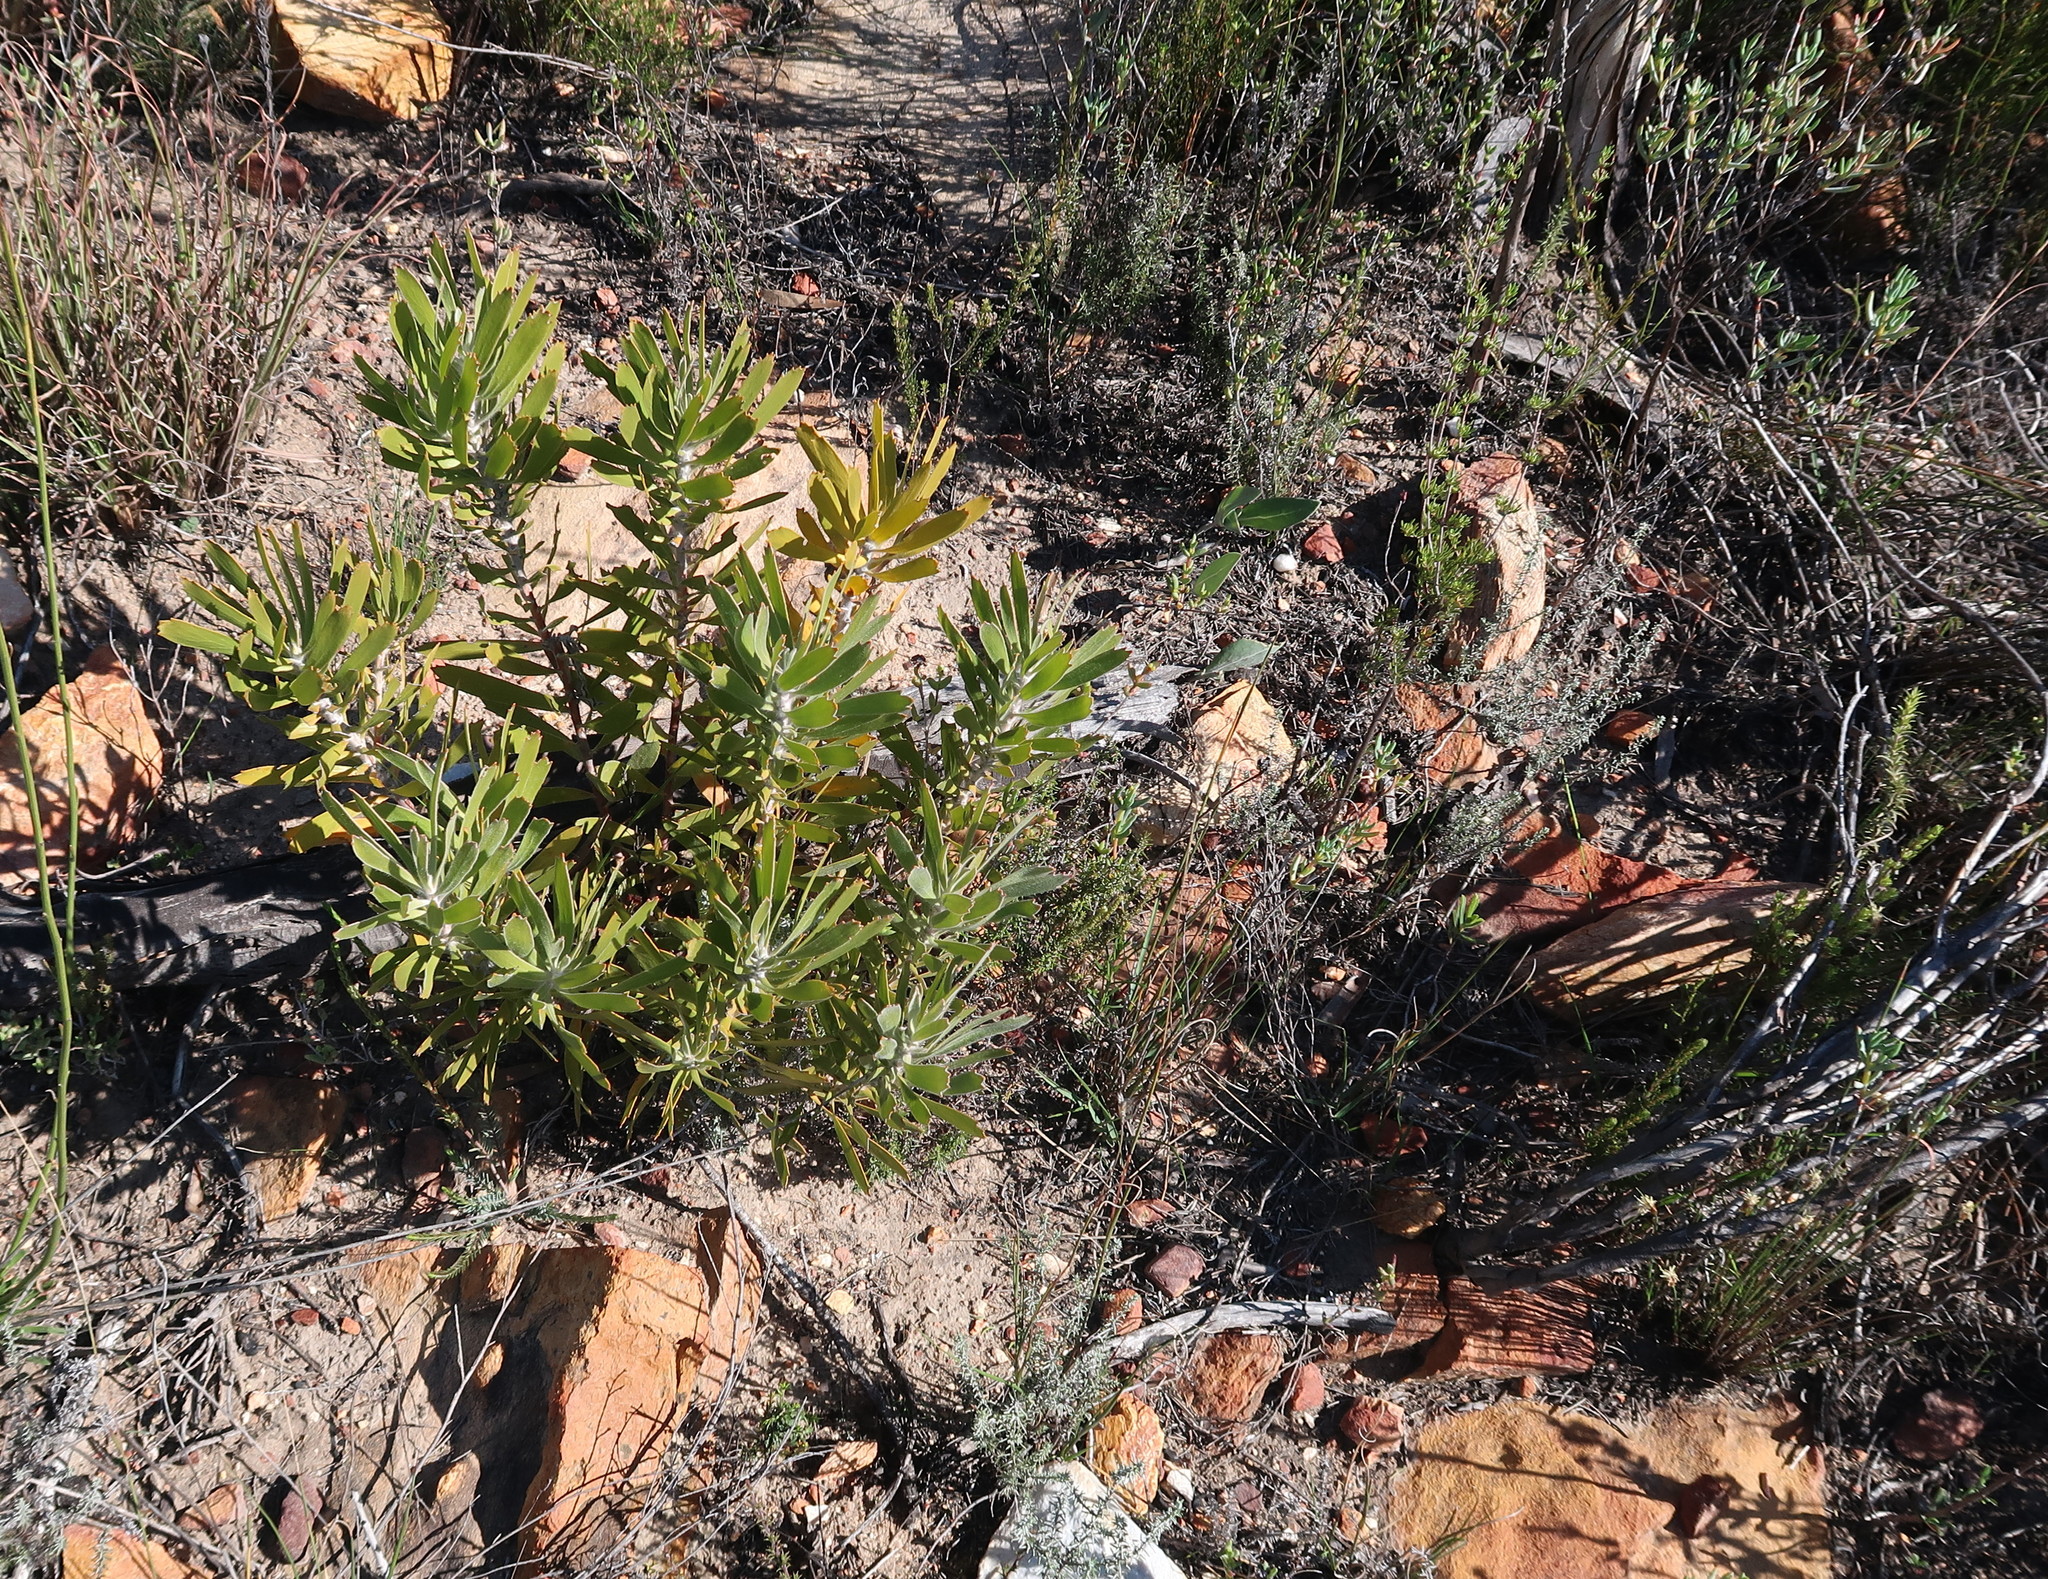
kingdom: Plantae
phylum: Tracheophyta
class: Magnoliopsida
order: Proteales
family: Proteaceae
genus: Leucospermum
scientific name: Leucospermum cuneiforme
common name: Common pincushion
